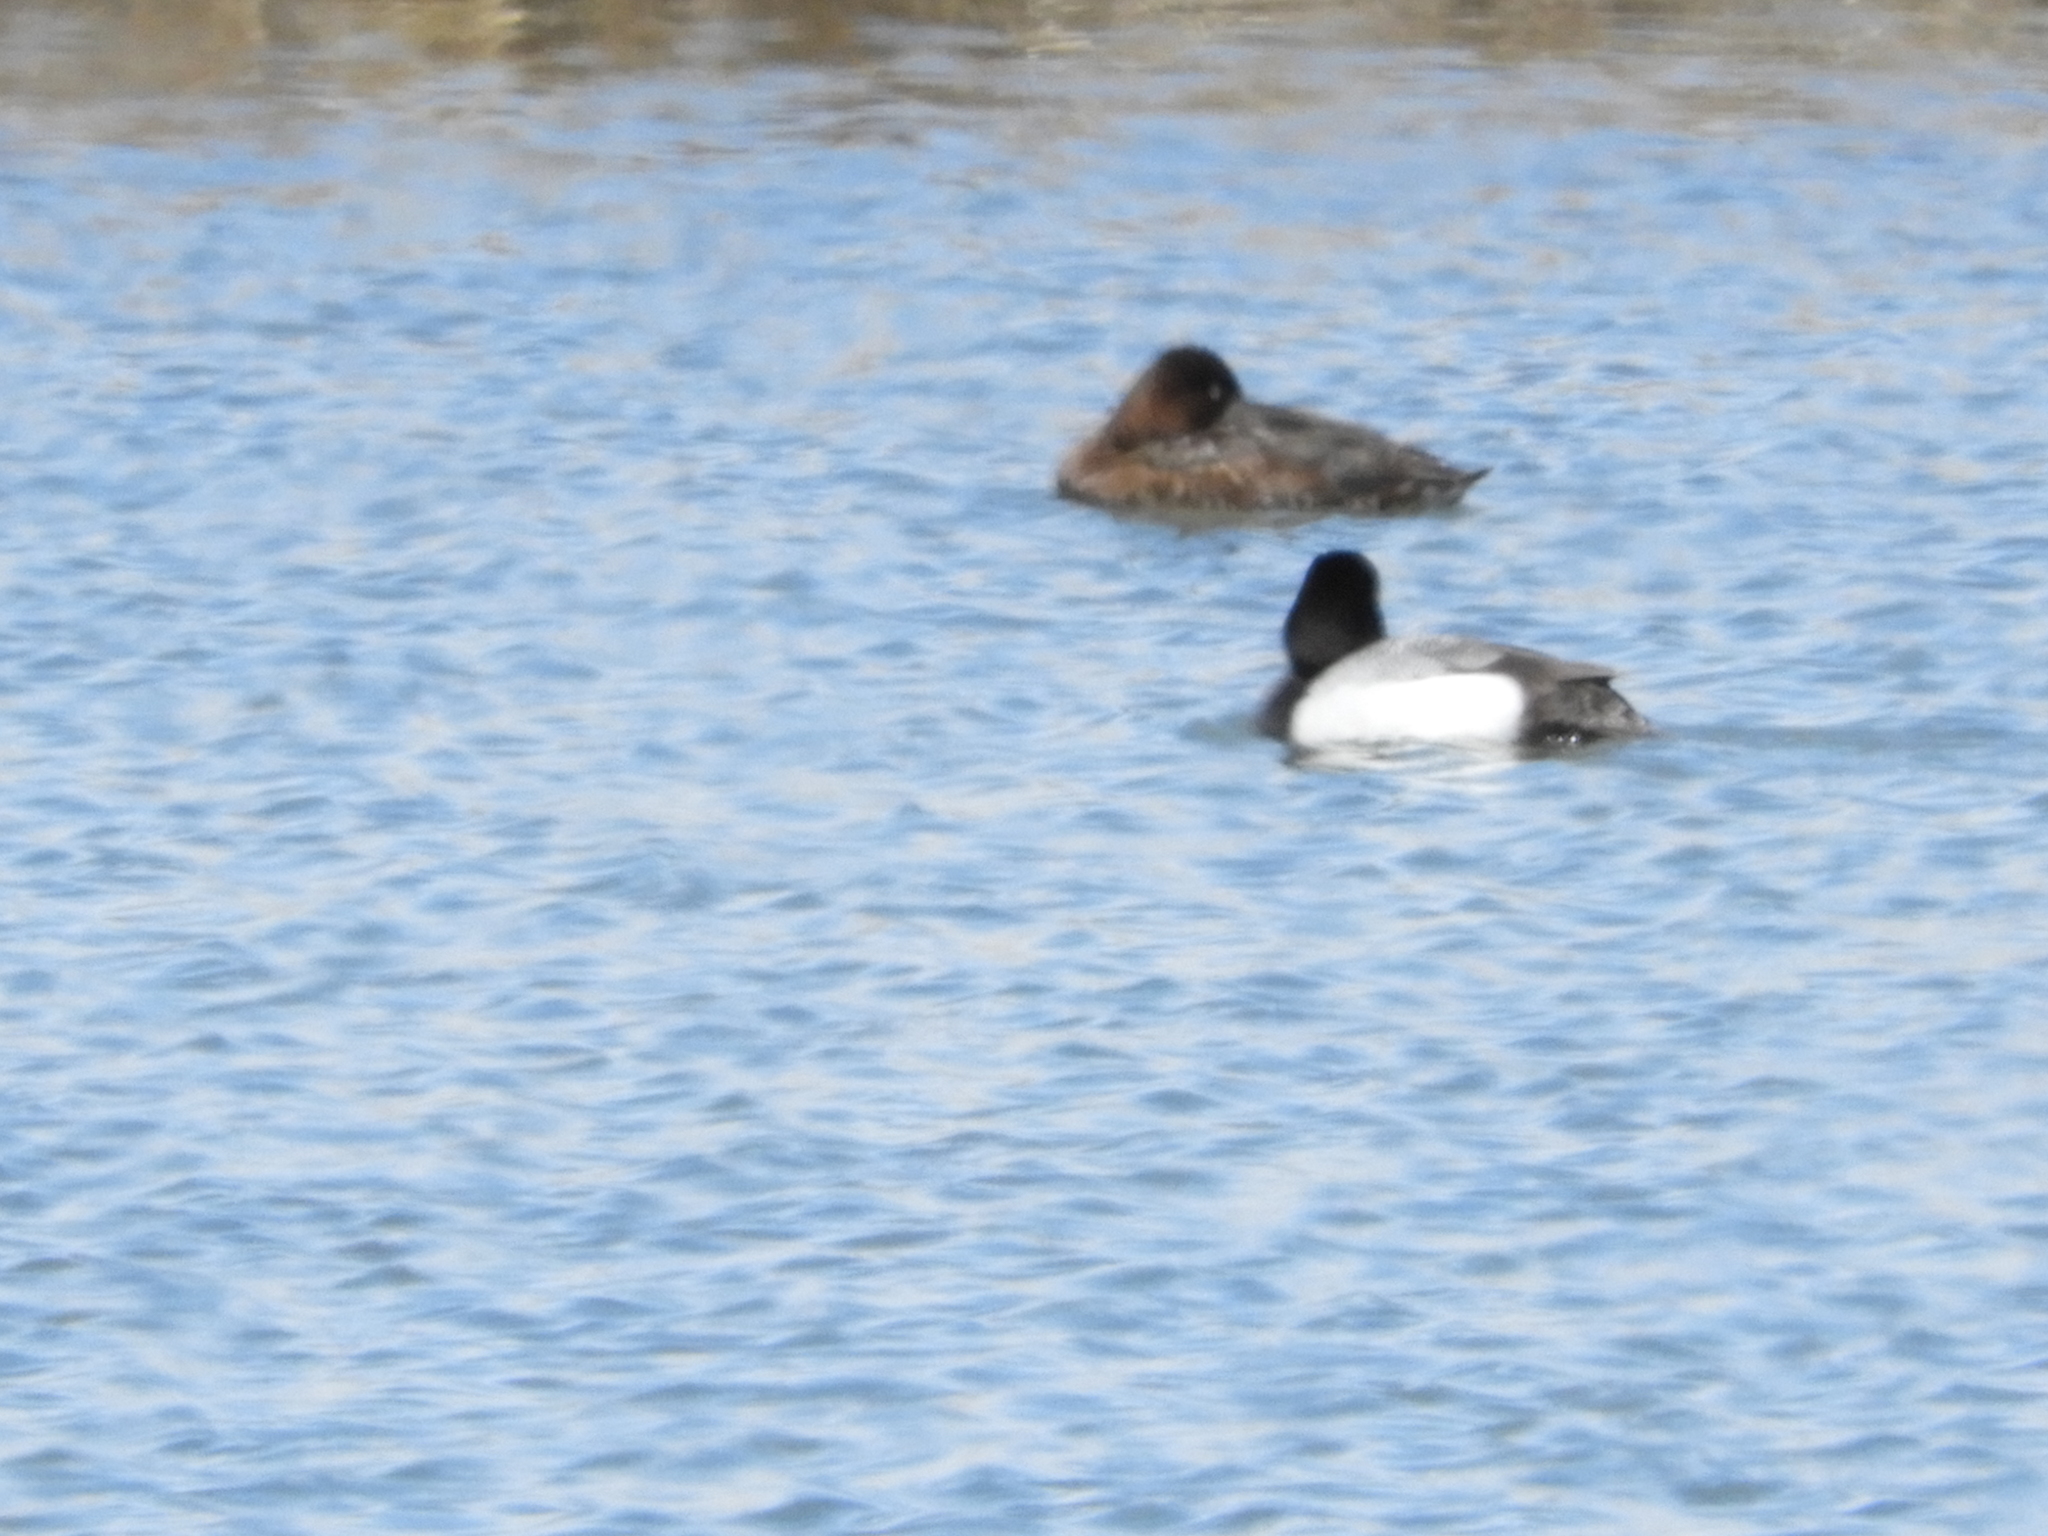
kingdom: Animalia
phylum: Chordata
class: Aves
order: Anseriformes
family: Anatidae
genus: Aythya
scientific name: Aythya affinis
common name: Lesser scaup
